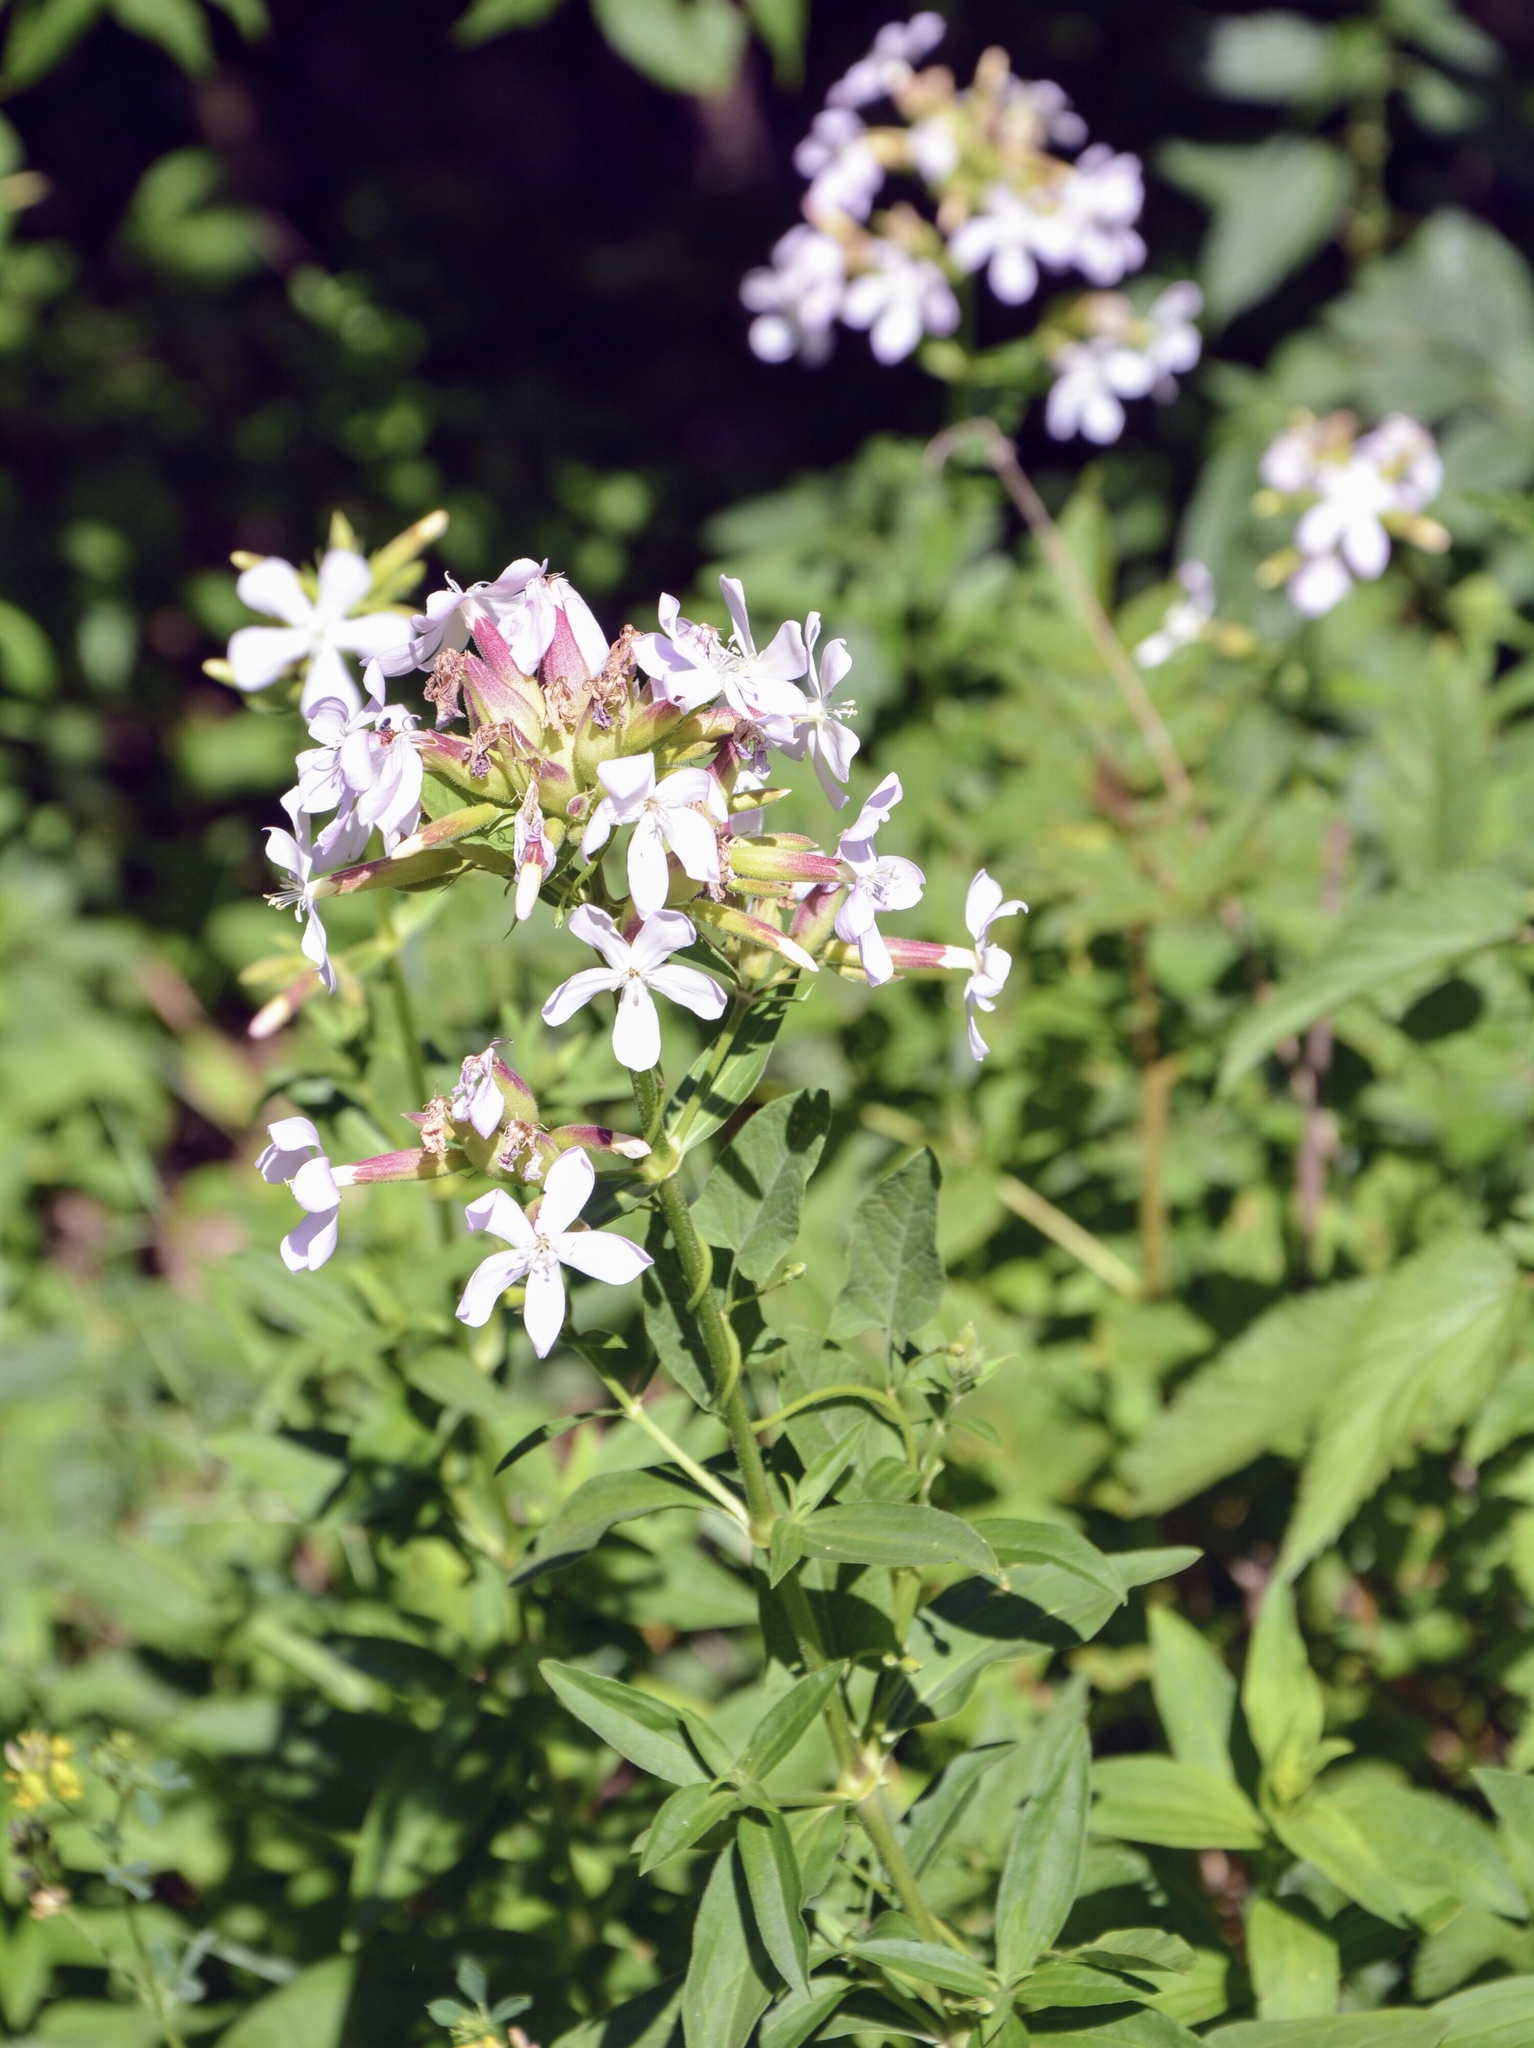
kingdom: Plantae
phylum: Tracheophyta
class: Magnoliopsida
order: Caryophyllales
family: Caryophyllaceae
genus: Saponaria
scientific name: Saponaria officinalis
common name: Soapwort
